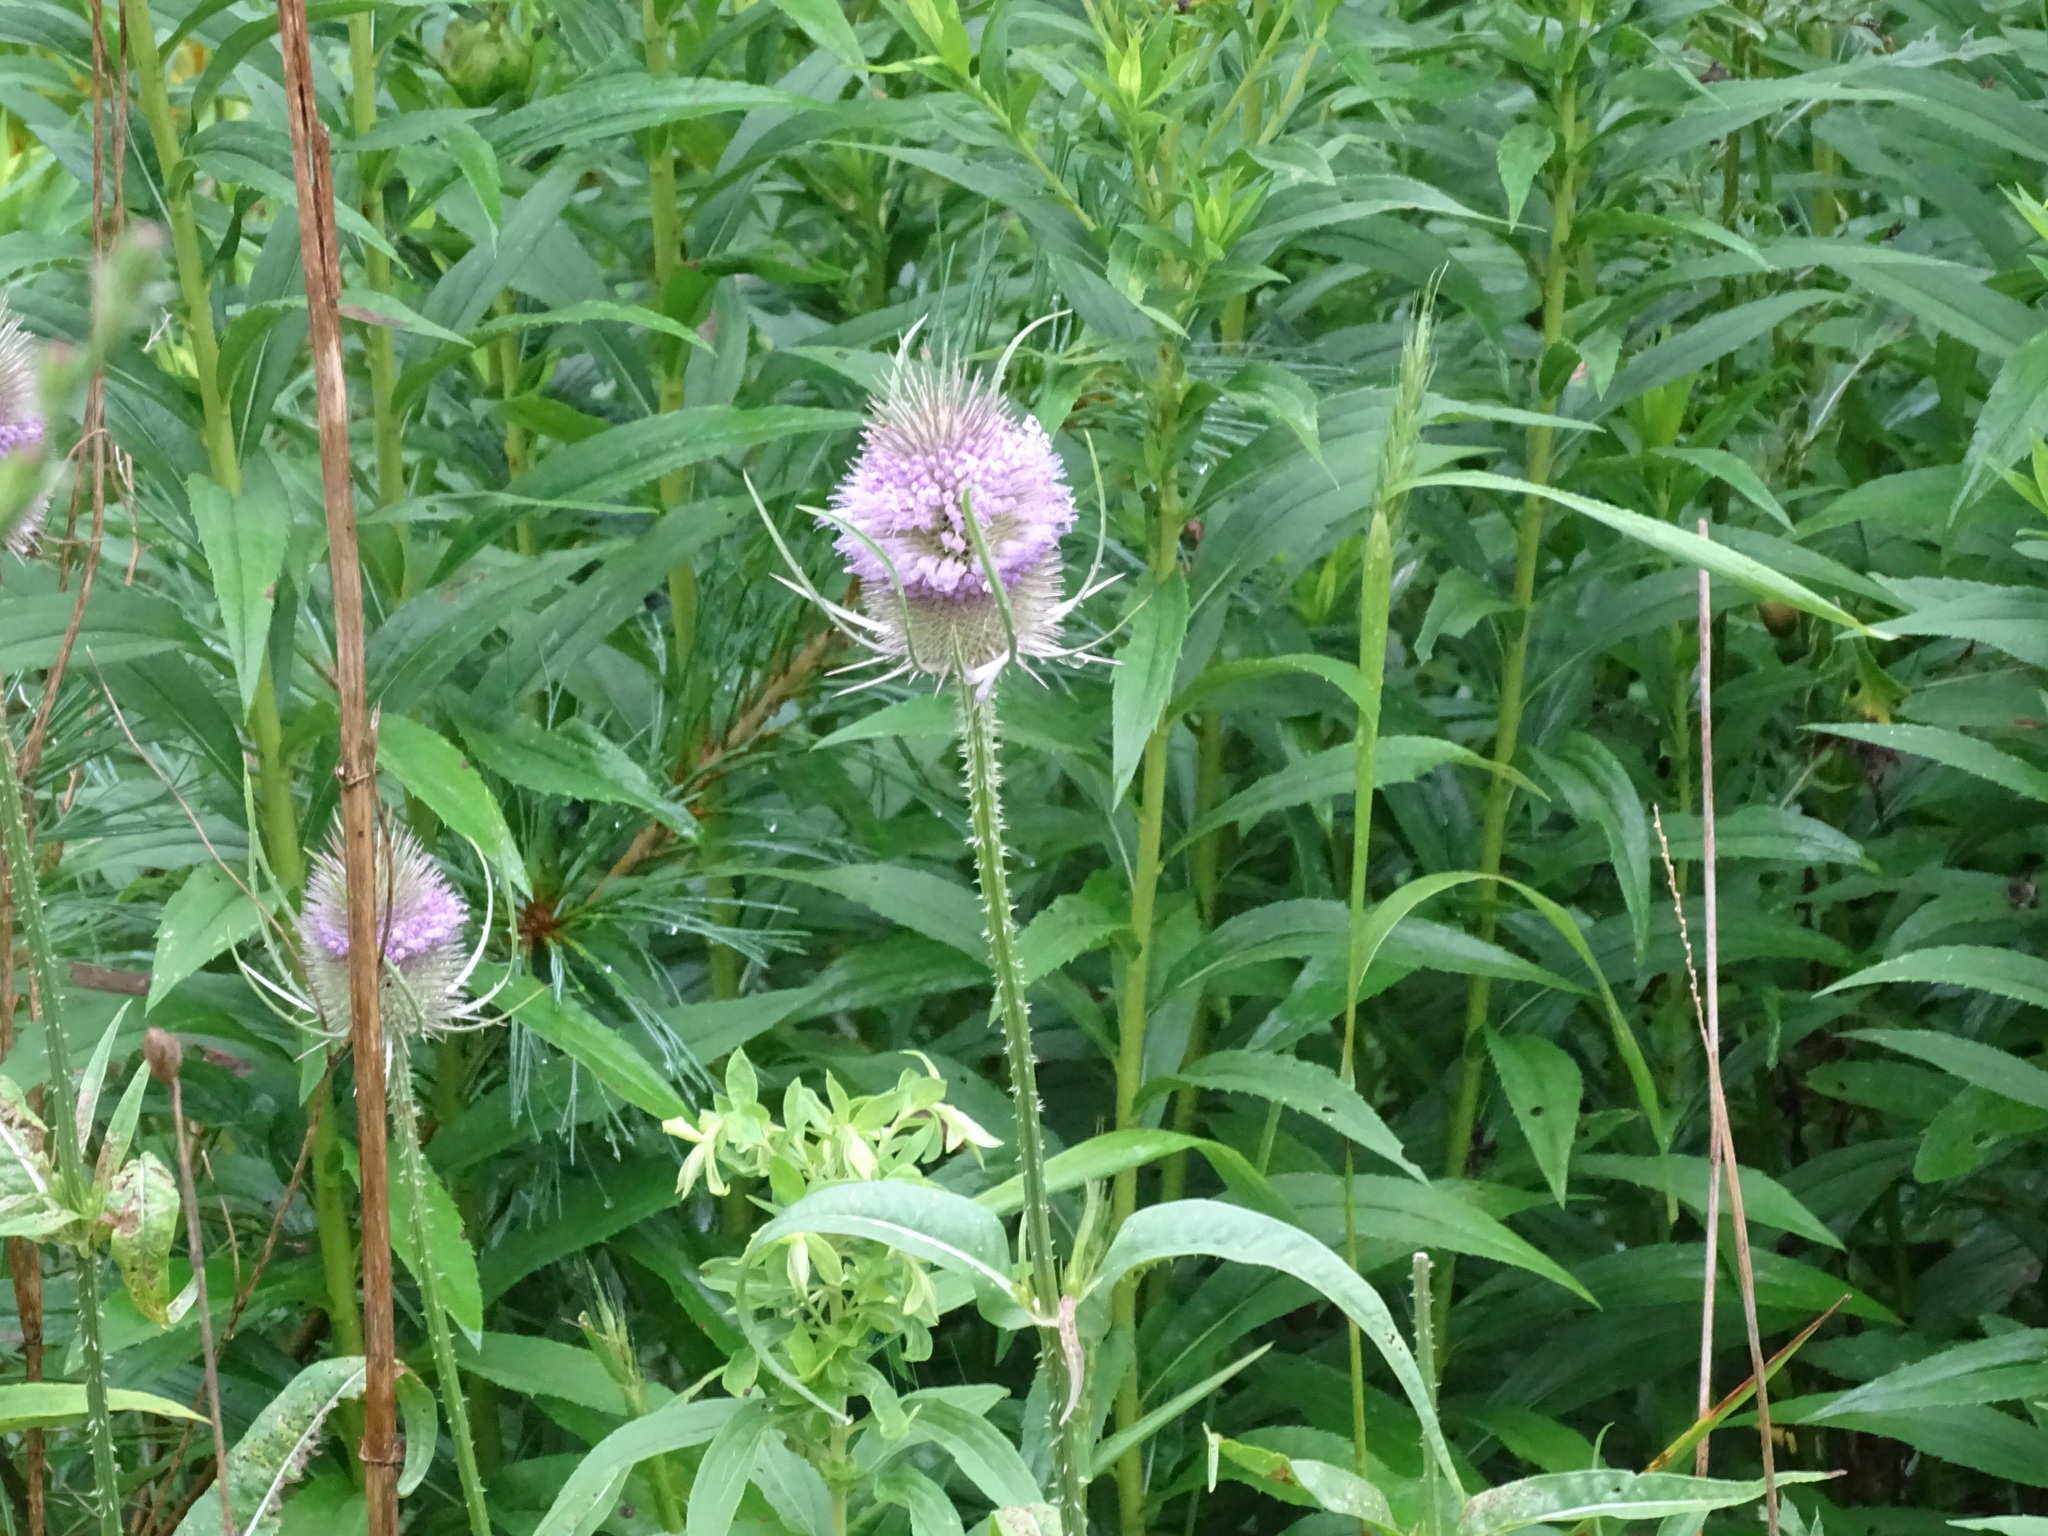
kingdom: Plantae
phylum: Tracheophyta
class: Magnoliopsida
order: Dipsacales
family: Caprifoliaceae
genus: Dipsacus
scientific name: Dipsacus fullonum
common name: Teasel
